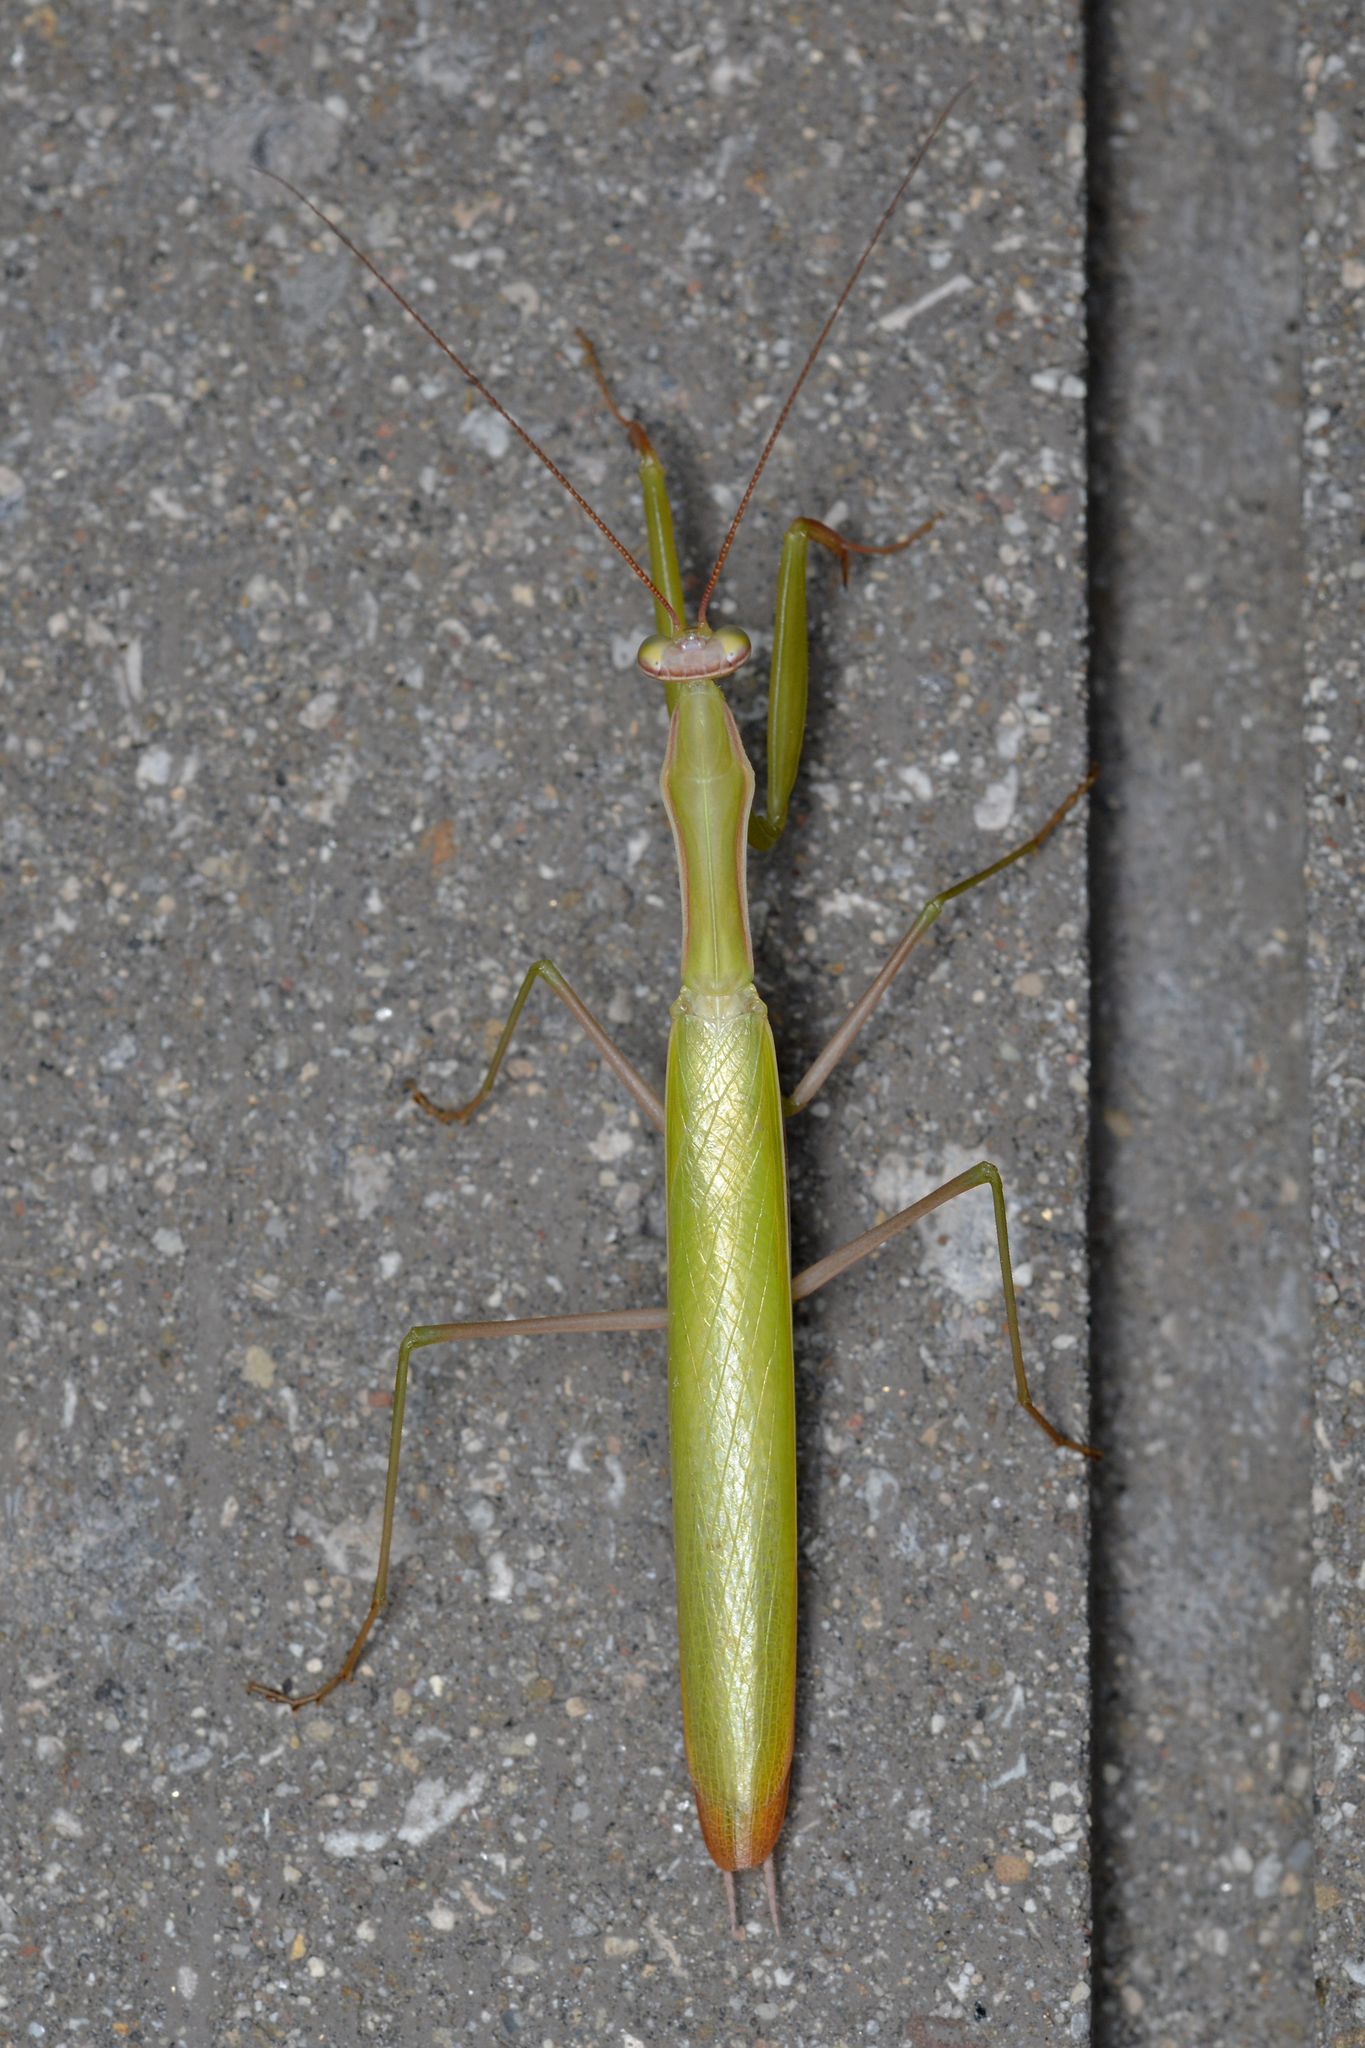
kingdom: Animalia
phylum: Arthropoda
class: Insecta
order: Mantodea
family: Mantidae
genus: Mantis
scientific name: Mantis religiosa
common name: Praying mantis
